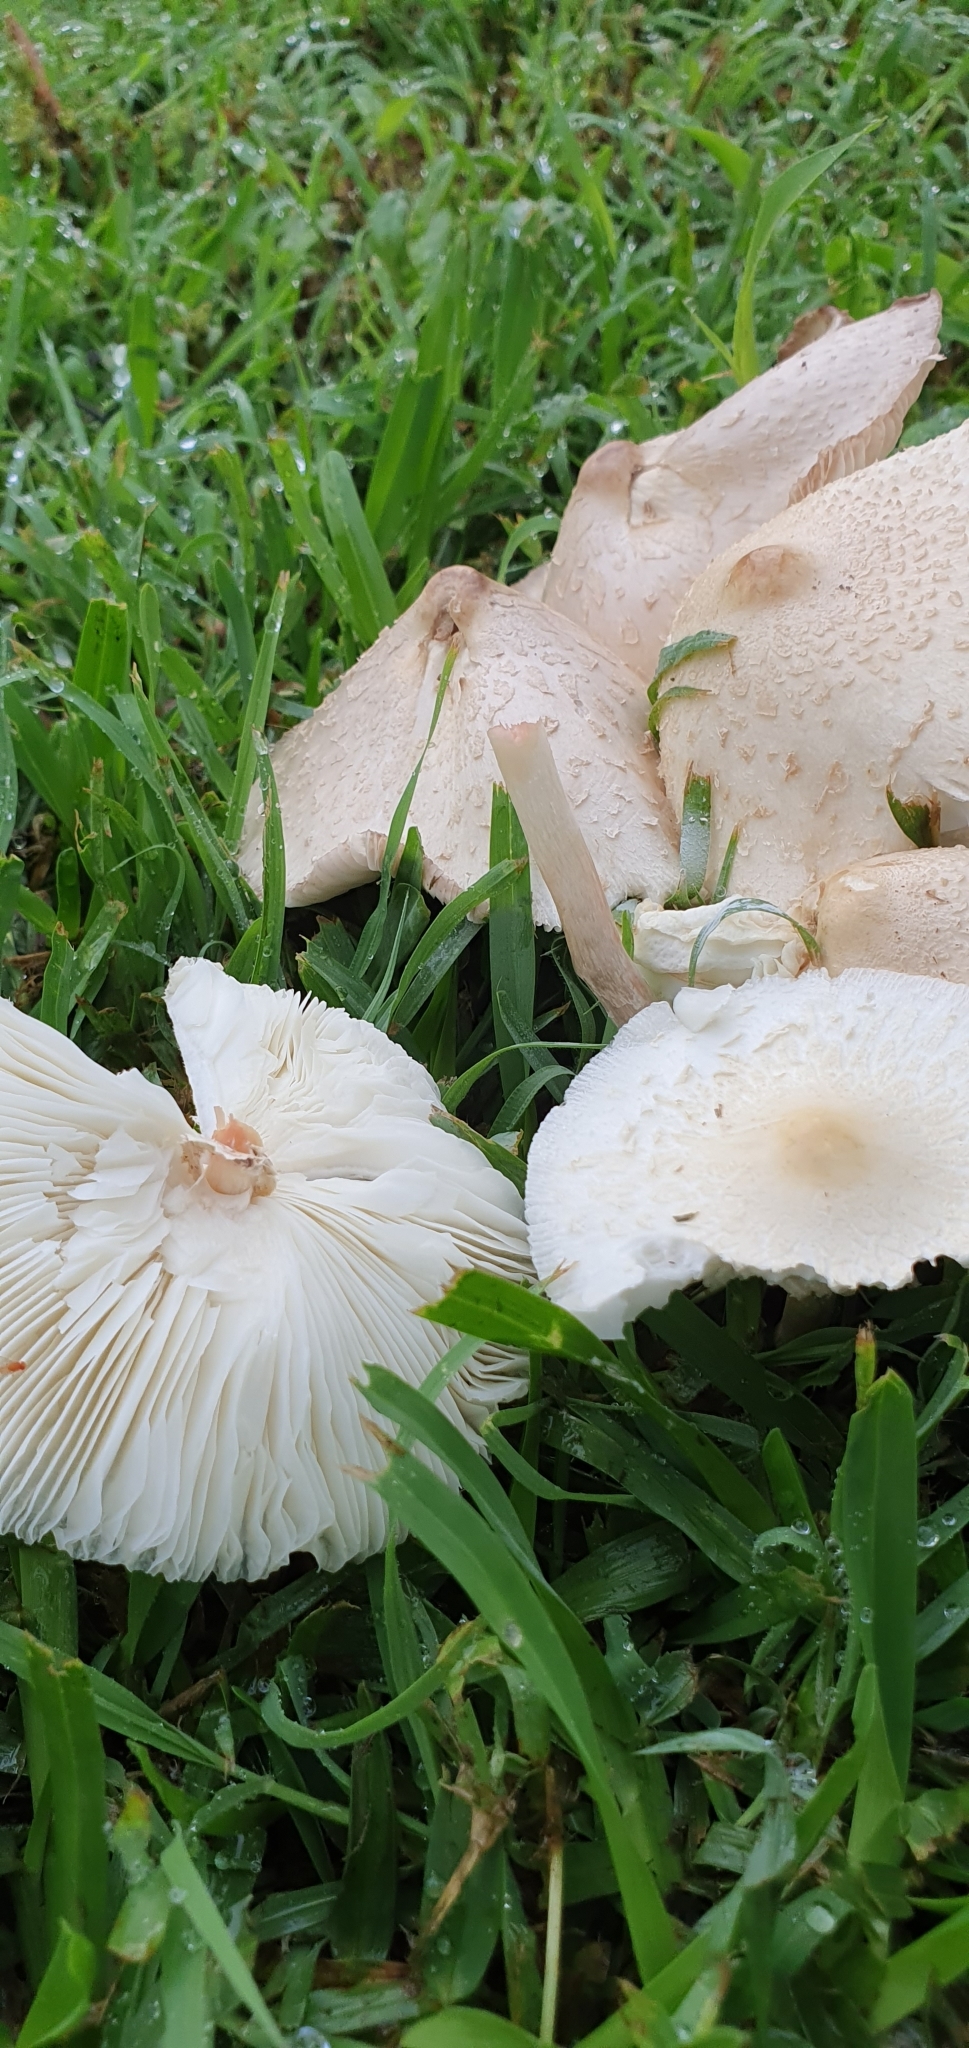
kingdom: Fungi
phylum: Basidiomycota
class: Agaricomycetes
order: Agaricales
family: Agaricaceae
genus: Chlorophyllum
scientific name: Chlorophyllum hortense
